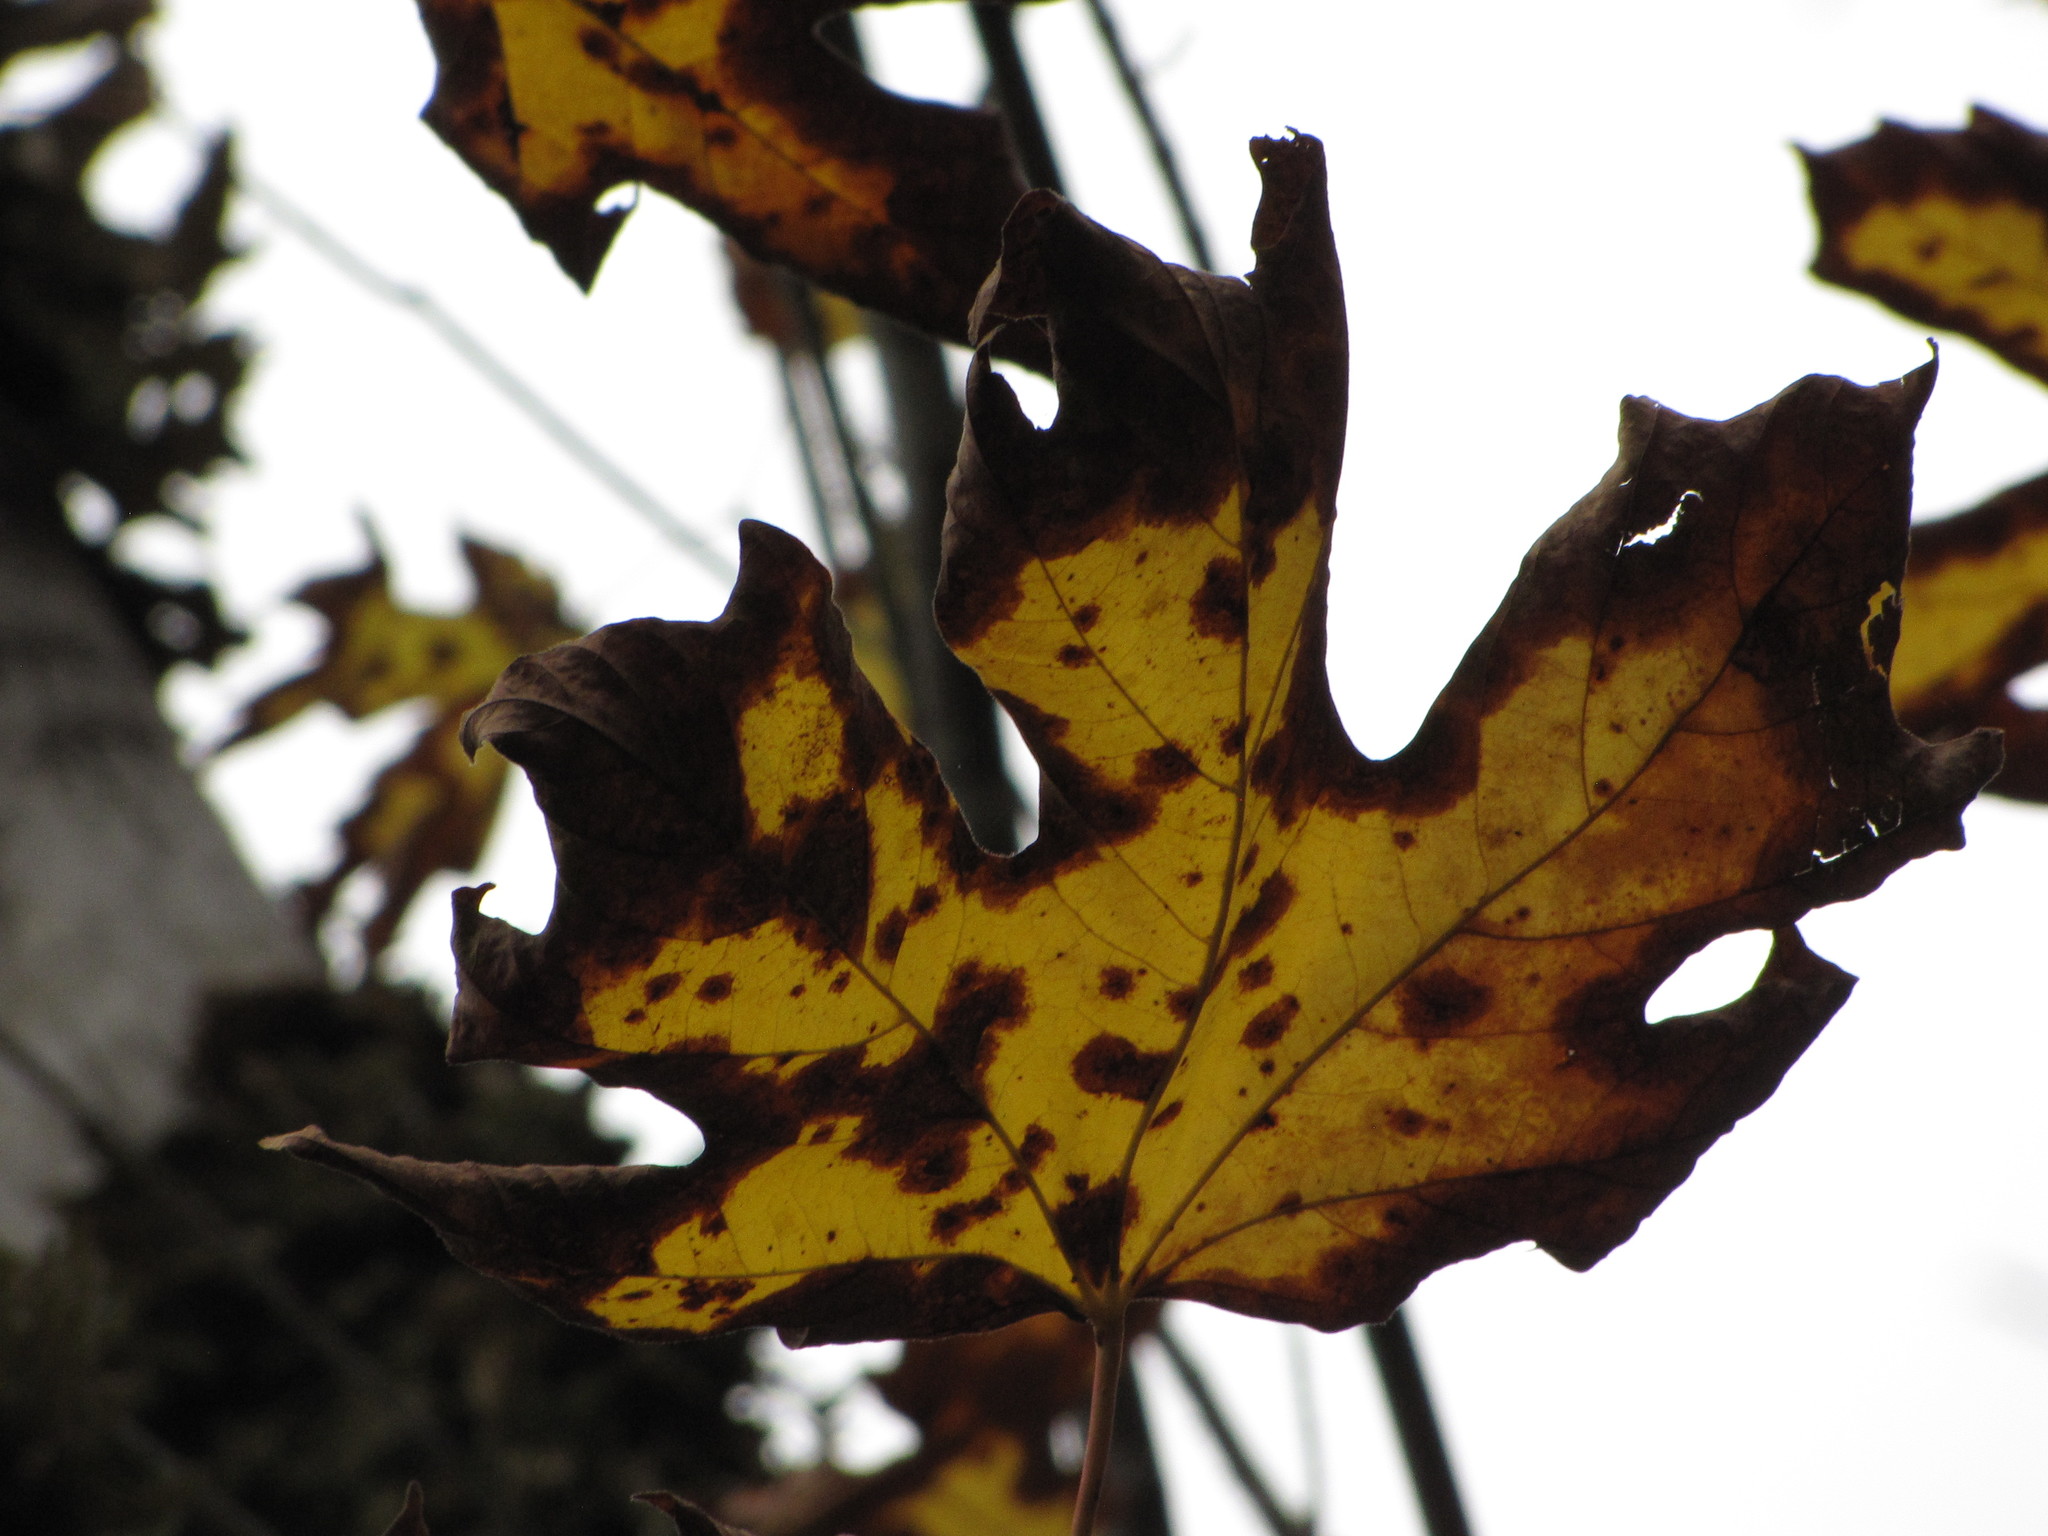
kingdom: Plantae
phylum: Tracheophyta
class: Magnoliopsida
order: Sapindales
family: Sapindaceae
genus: Acer
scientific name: Acer macrophyllum
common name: Oregon maple
